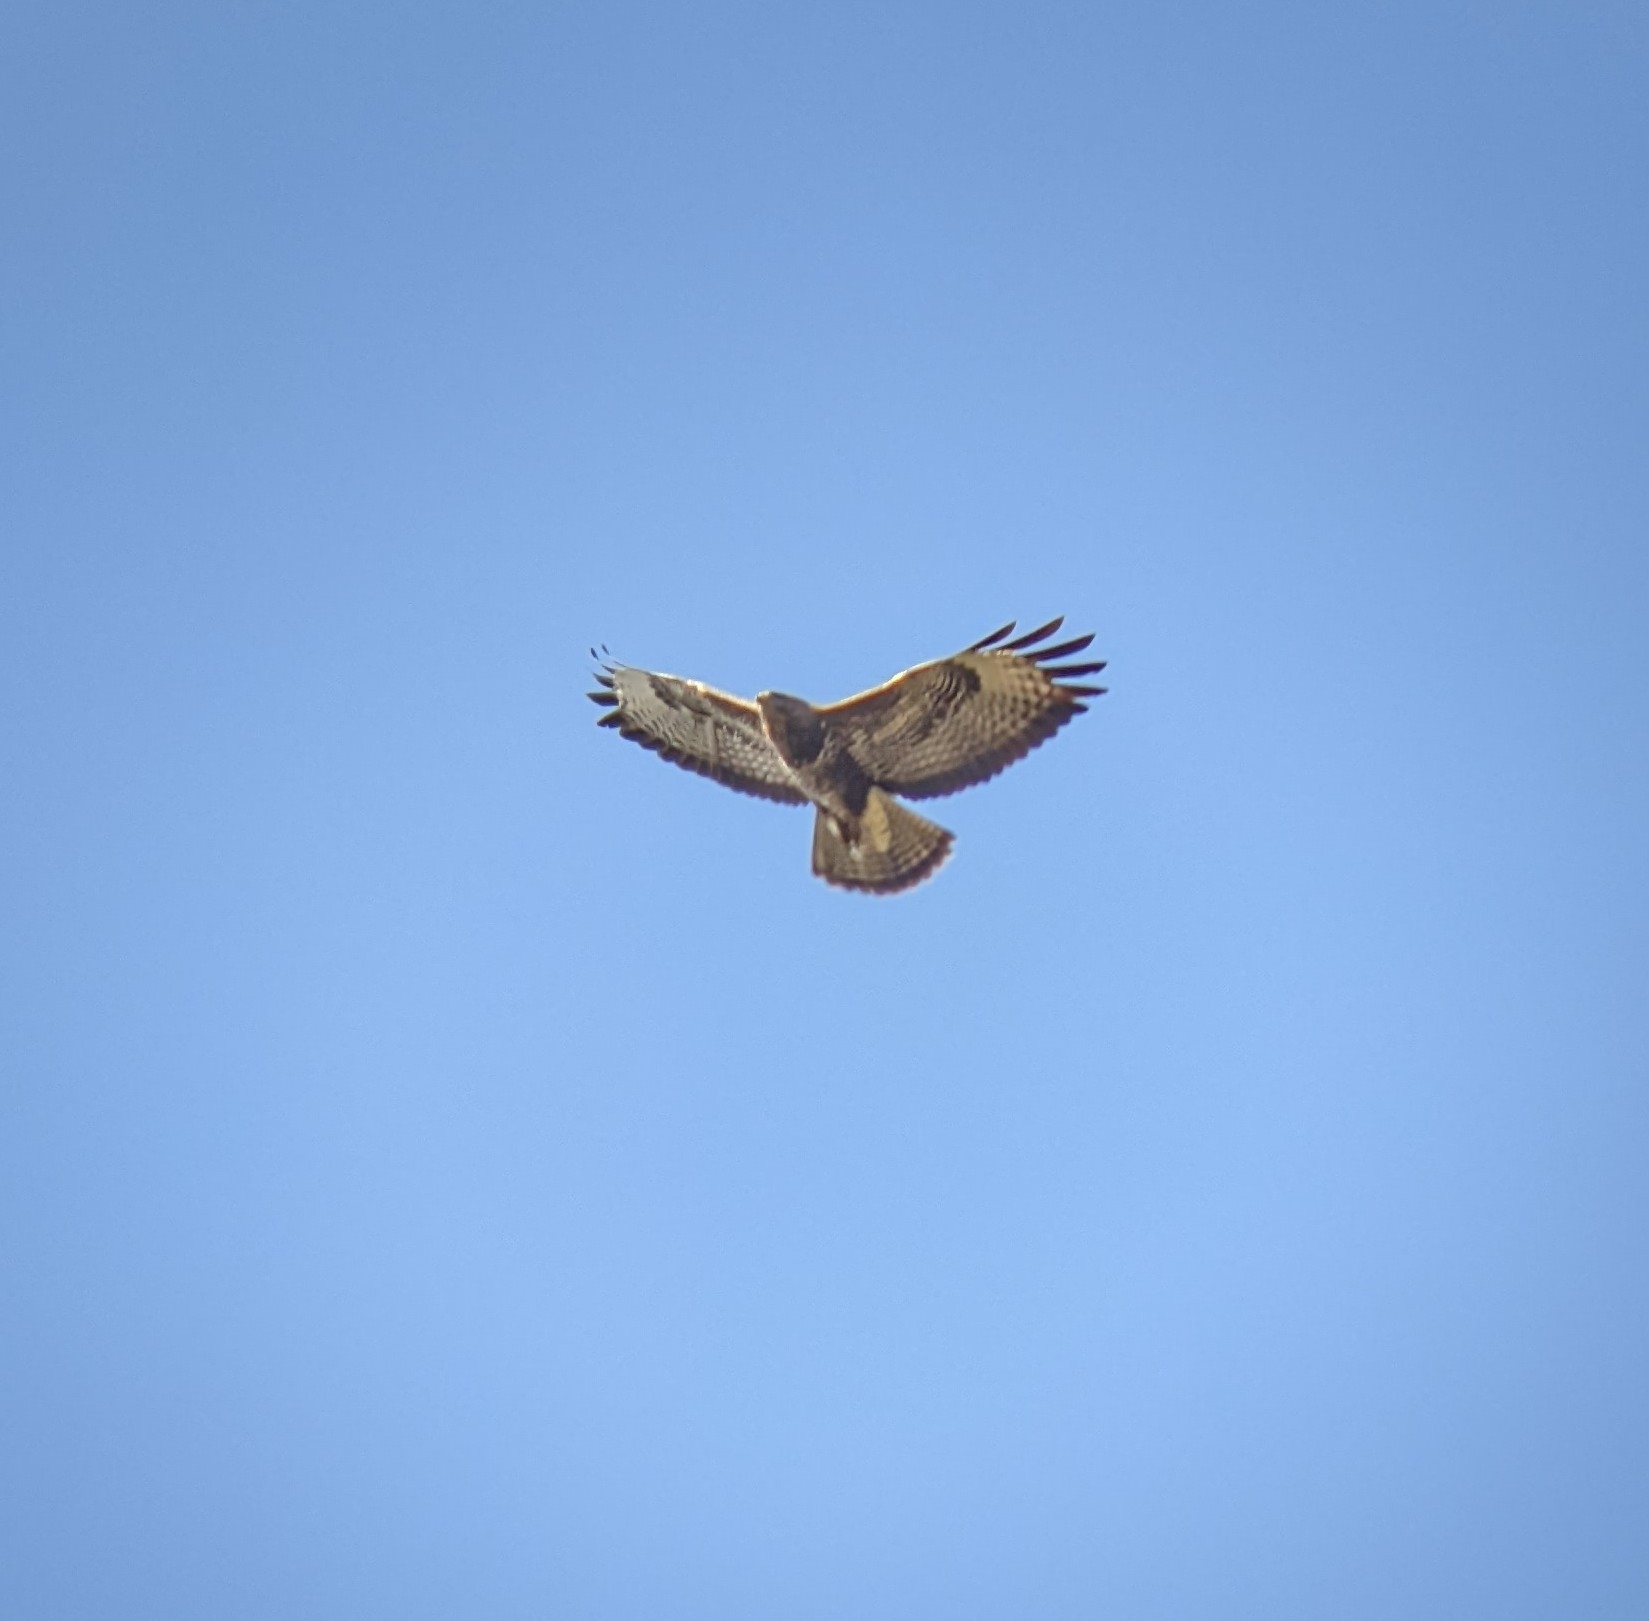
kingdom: Animalia
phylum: Chordata
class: Aves
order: Accipitriformes
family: Accipitridae
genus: Buteo
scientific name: Buteo buteo
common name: Common buzzard
